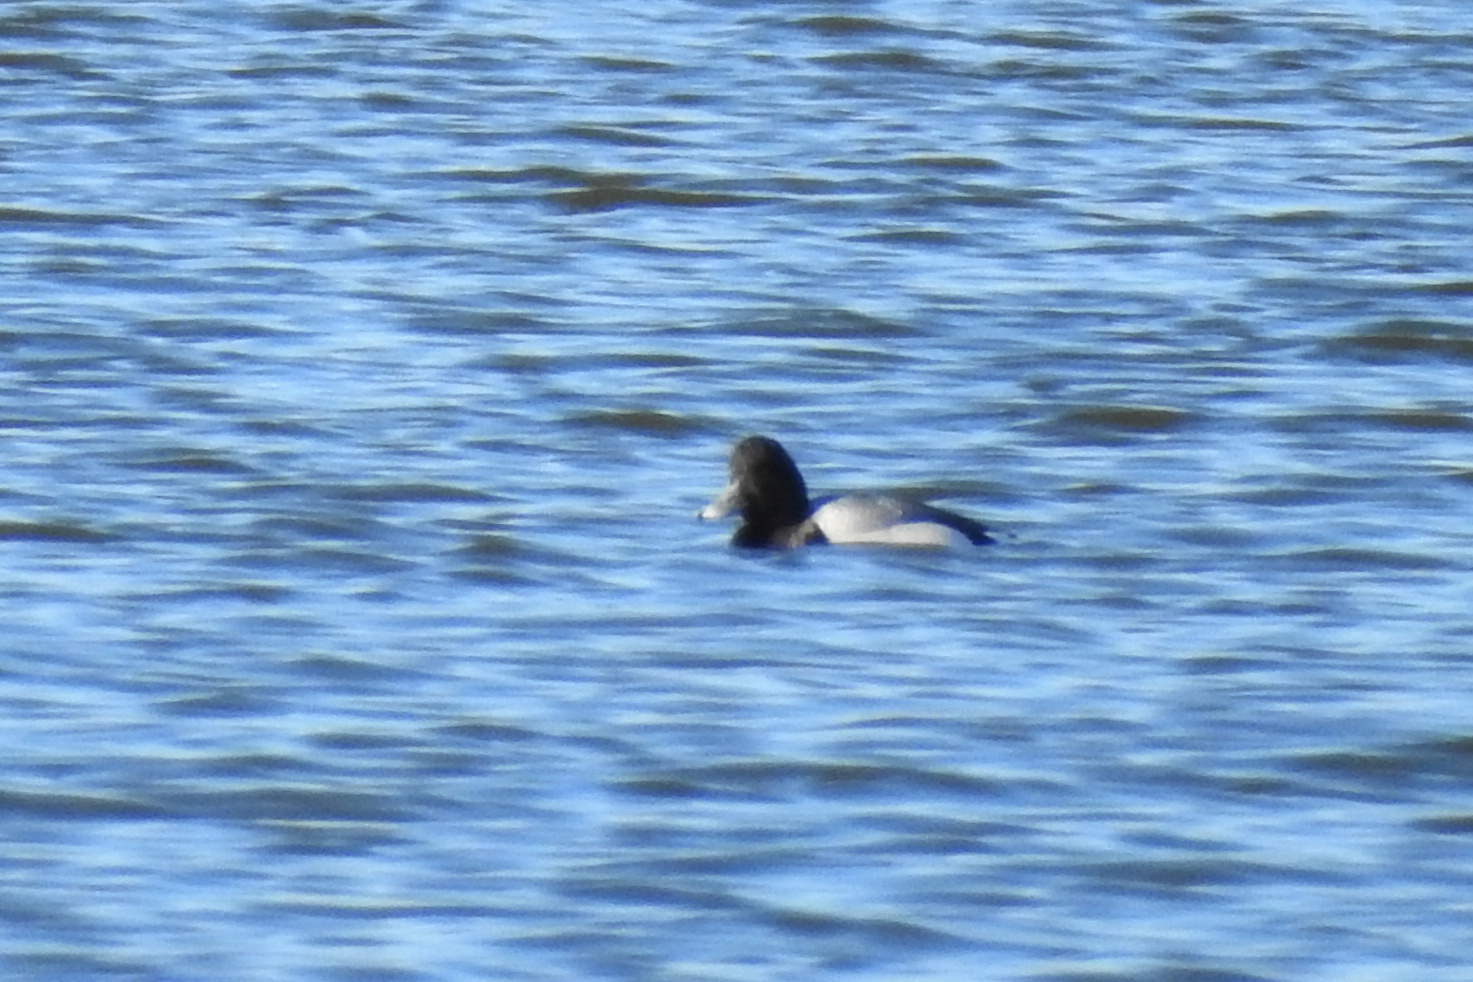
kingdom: Animalia
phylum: Chordata
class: Aves
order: Anseriformes
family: Anatidae
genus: Aythya
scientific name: Aythya affinis
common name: Lesser scaup
